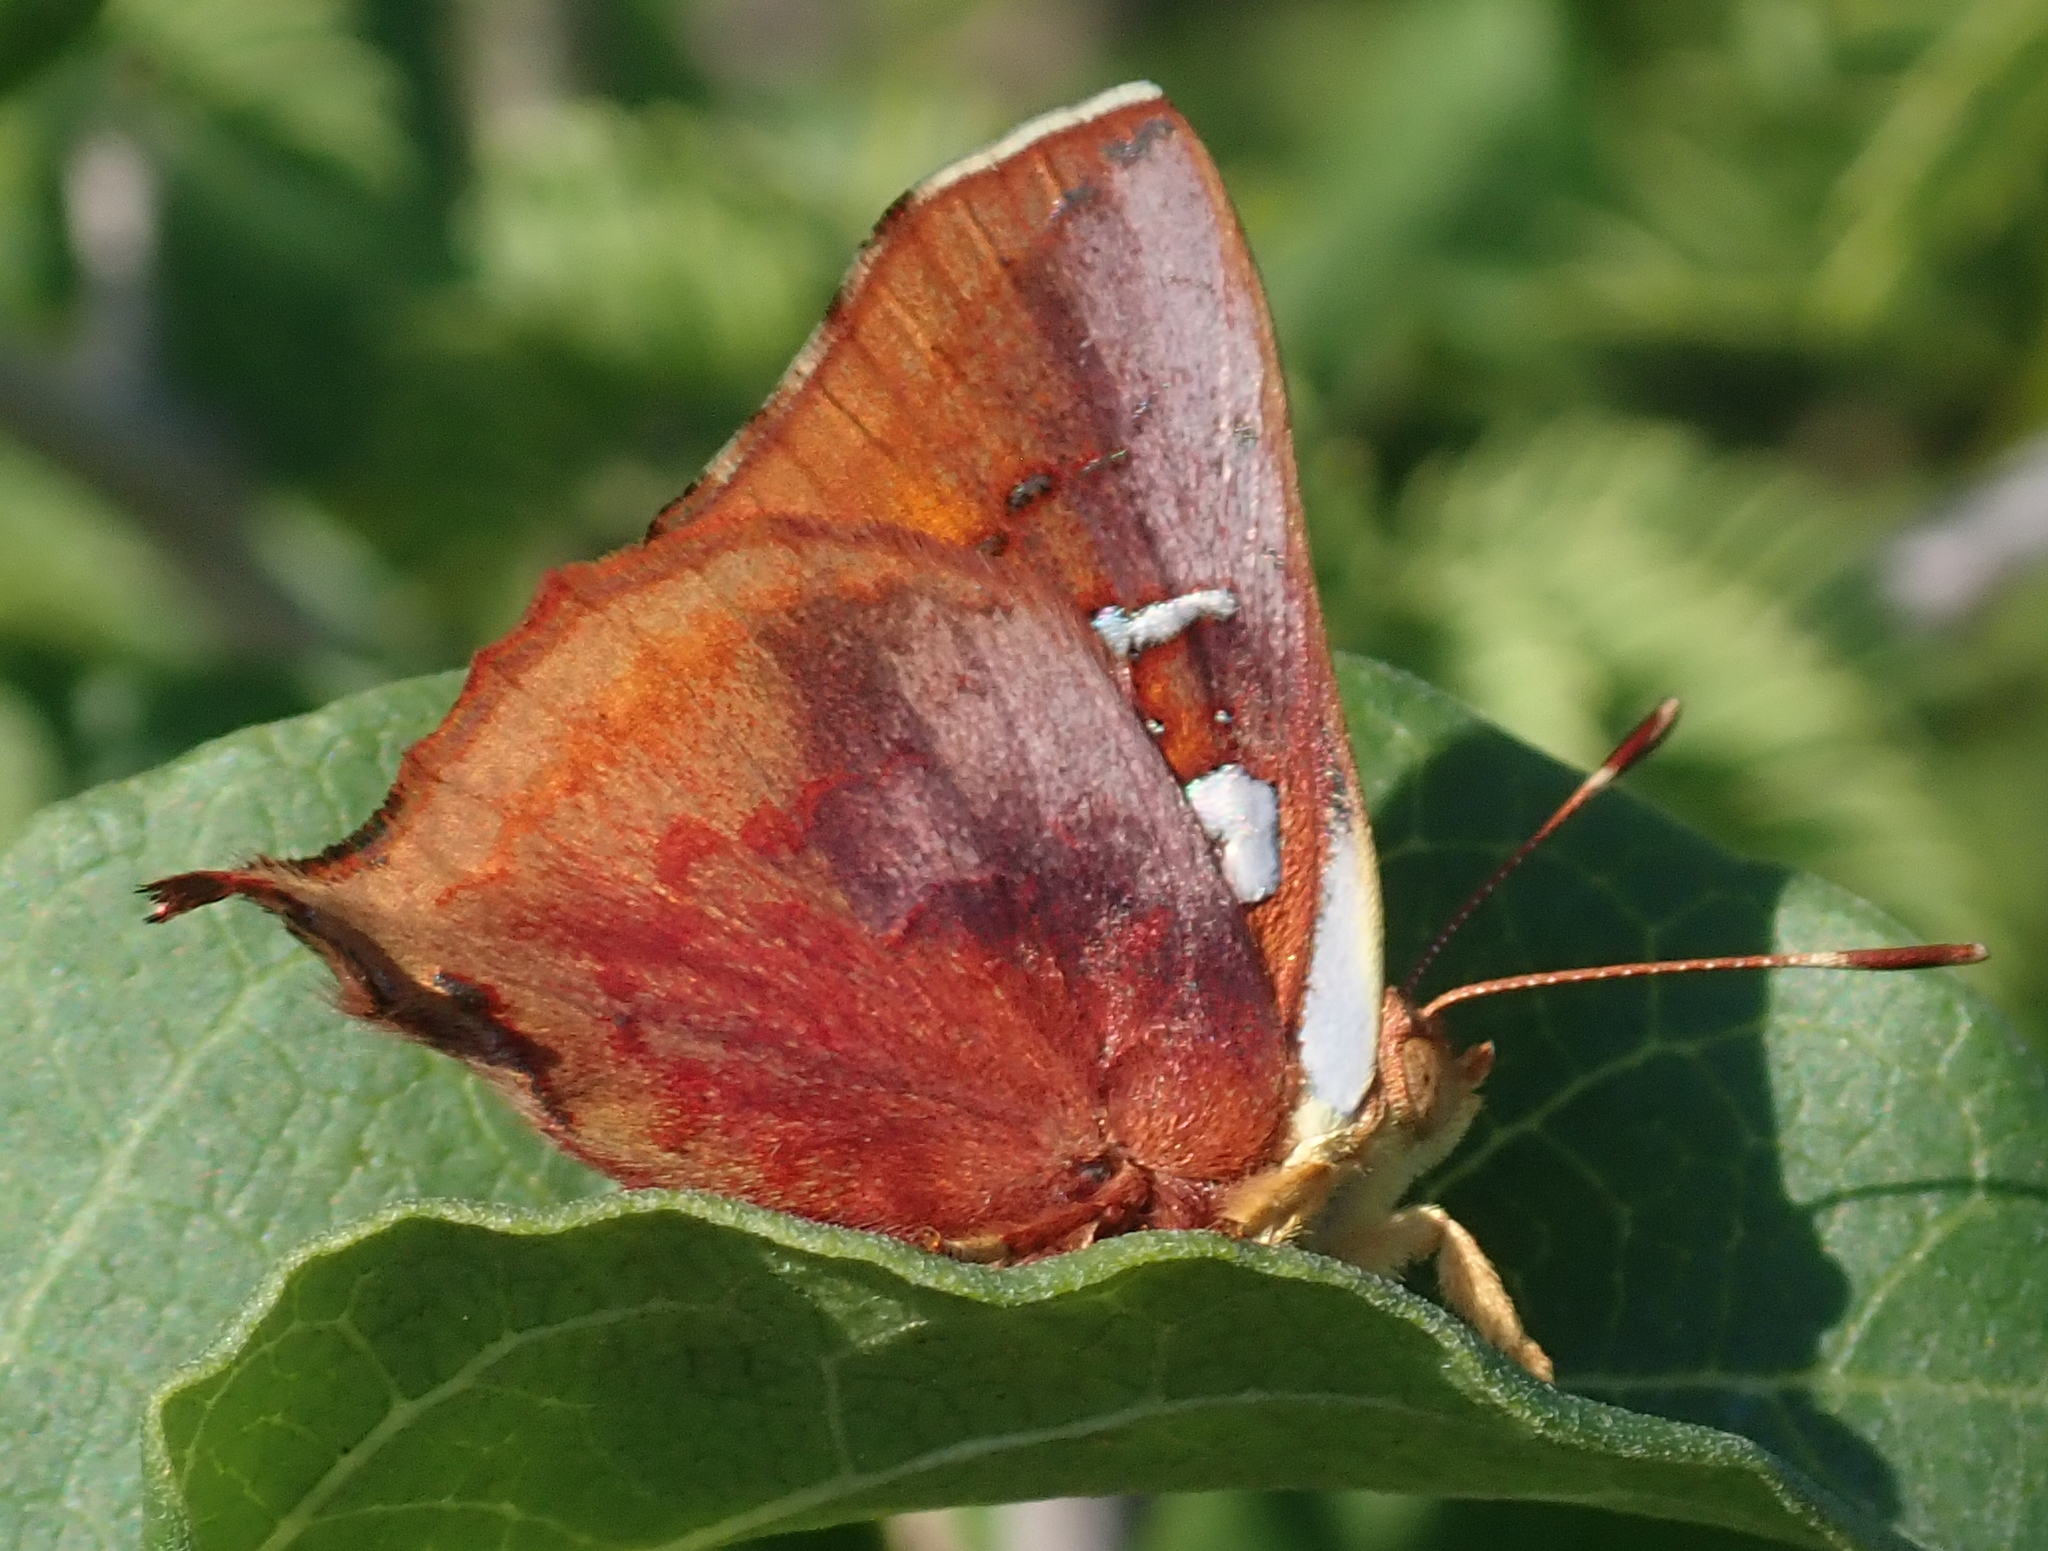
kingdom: Animalia
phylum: Arthropoda
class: Insecta
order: Lepidoptera
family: Lycaenidae
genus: Axiocerses
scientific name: Axiocerses amanga
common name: Bush scarlet
